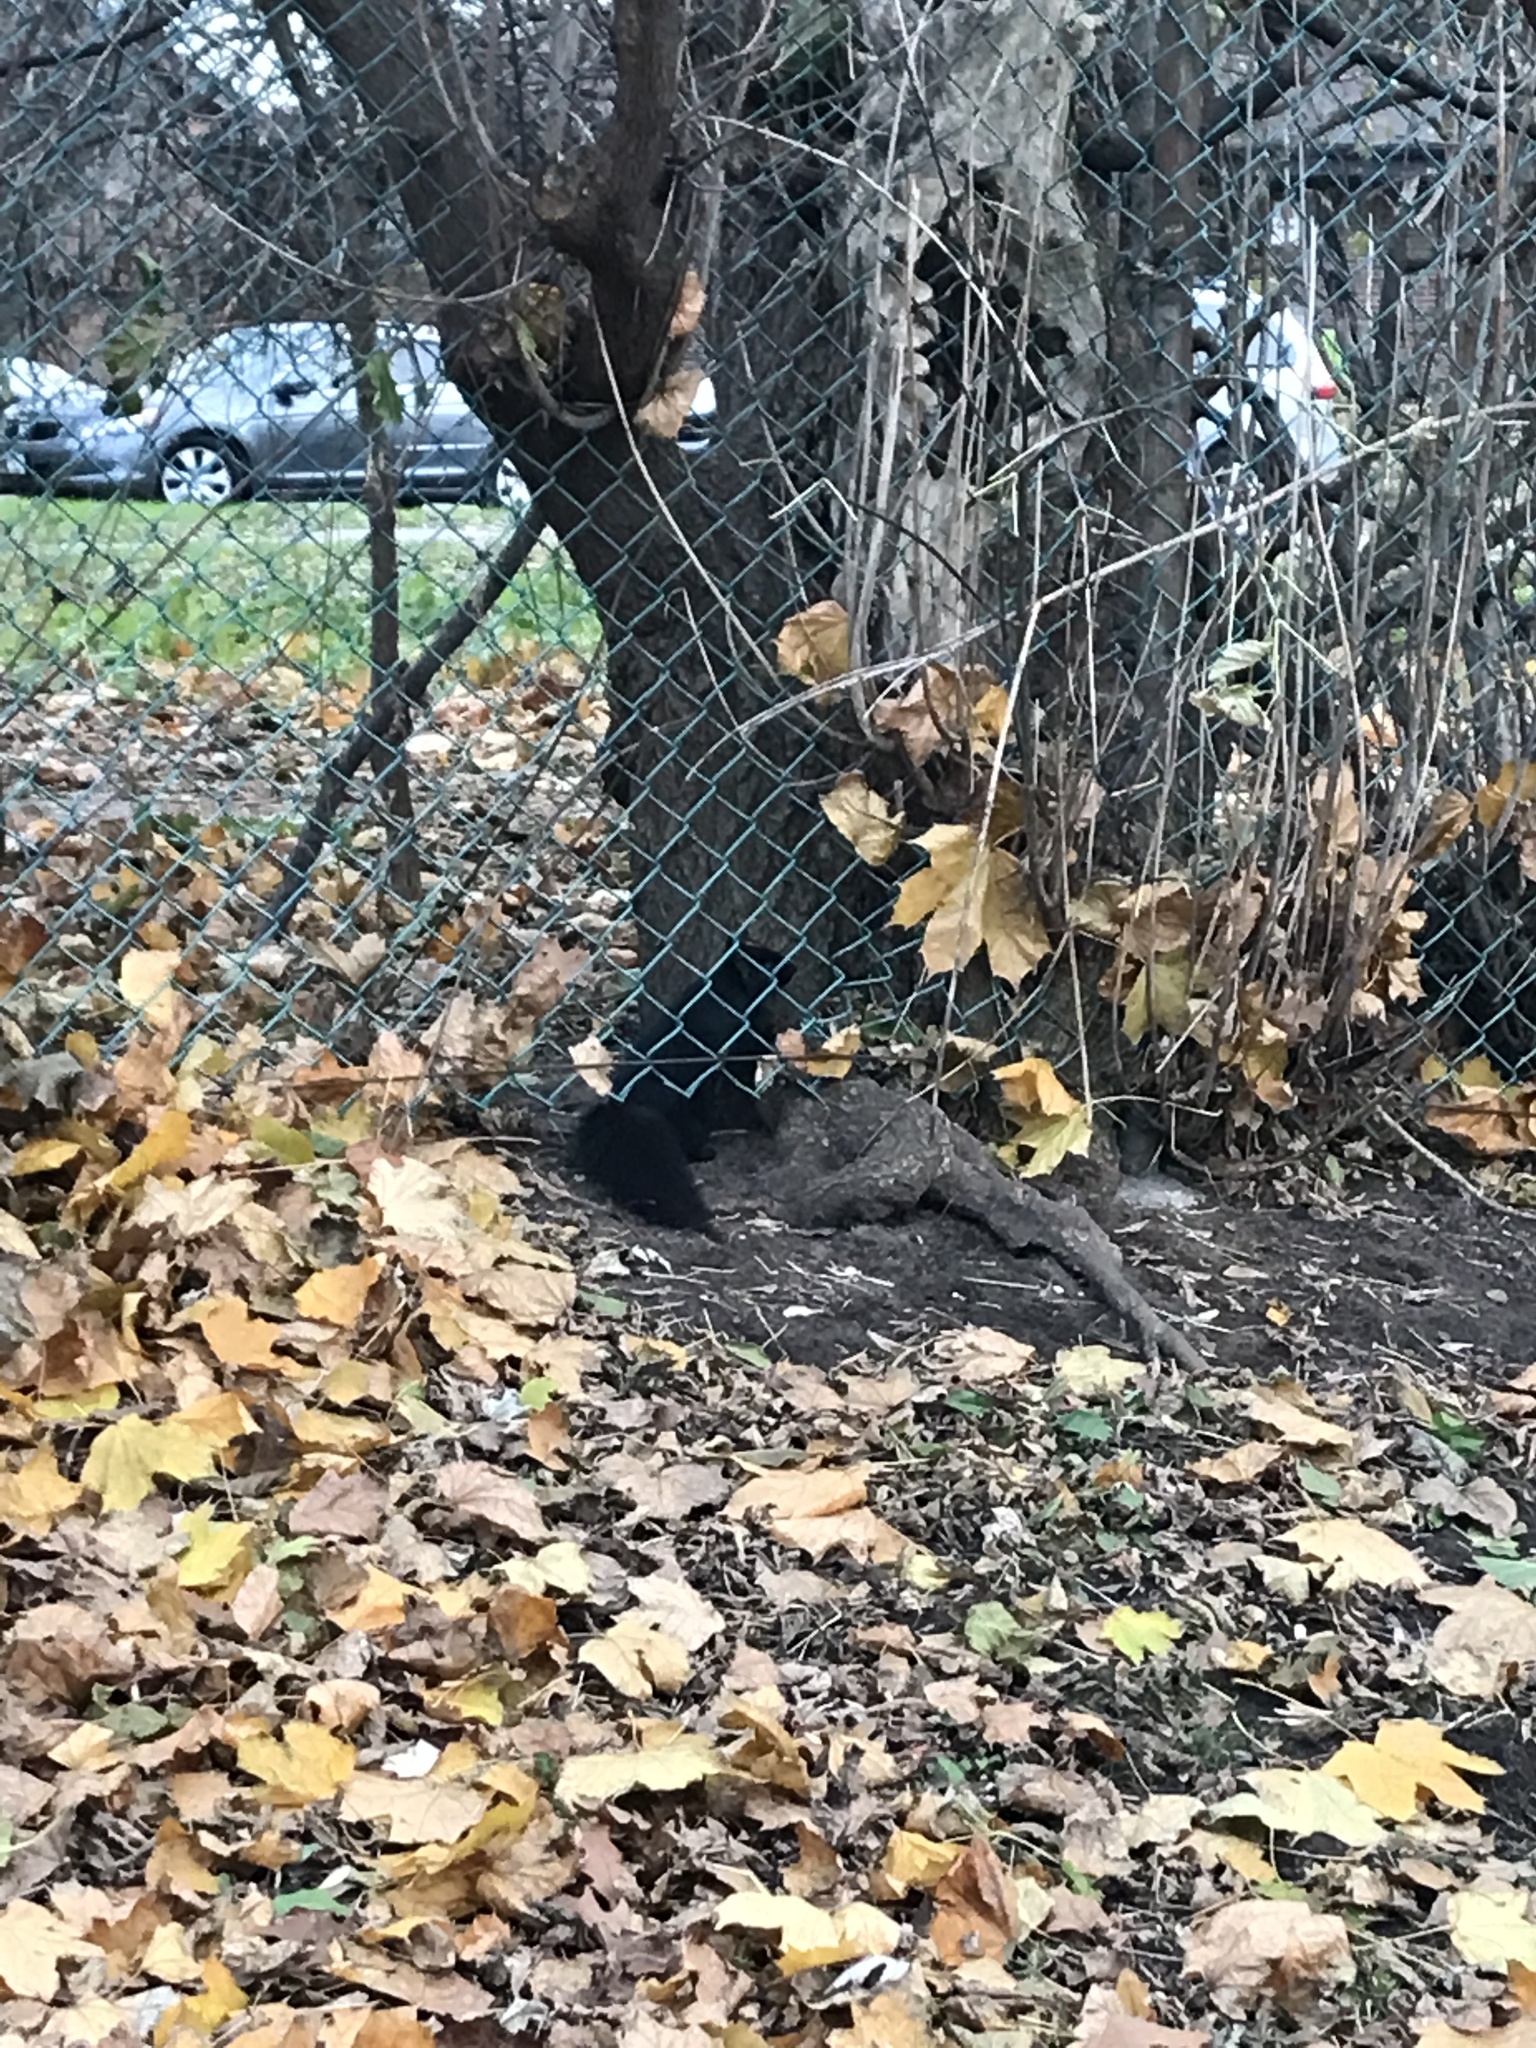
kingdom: Animalia
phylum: Chordata
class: Mammalia
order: Rodentia
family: Sciuridae
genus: Sciurus
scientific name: Sciurus carolinensis
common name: Eastern gray squirrel
